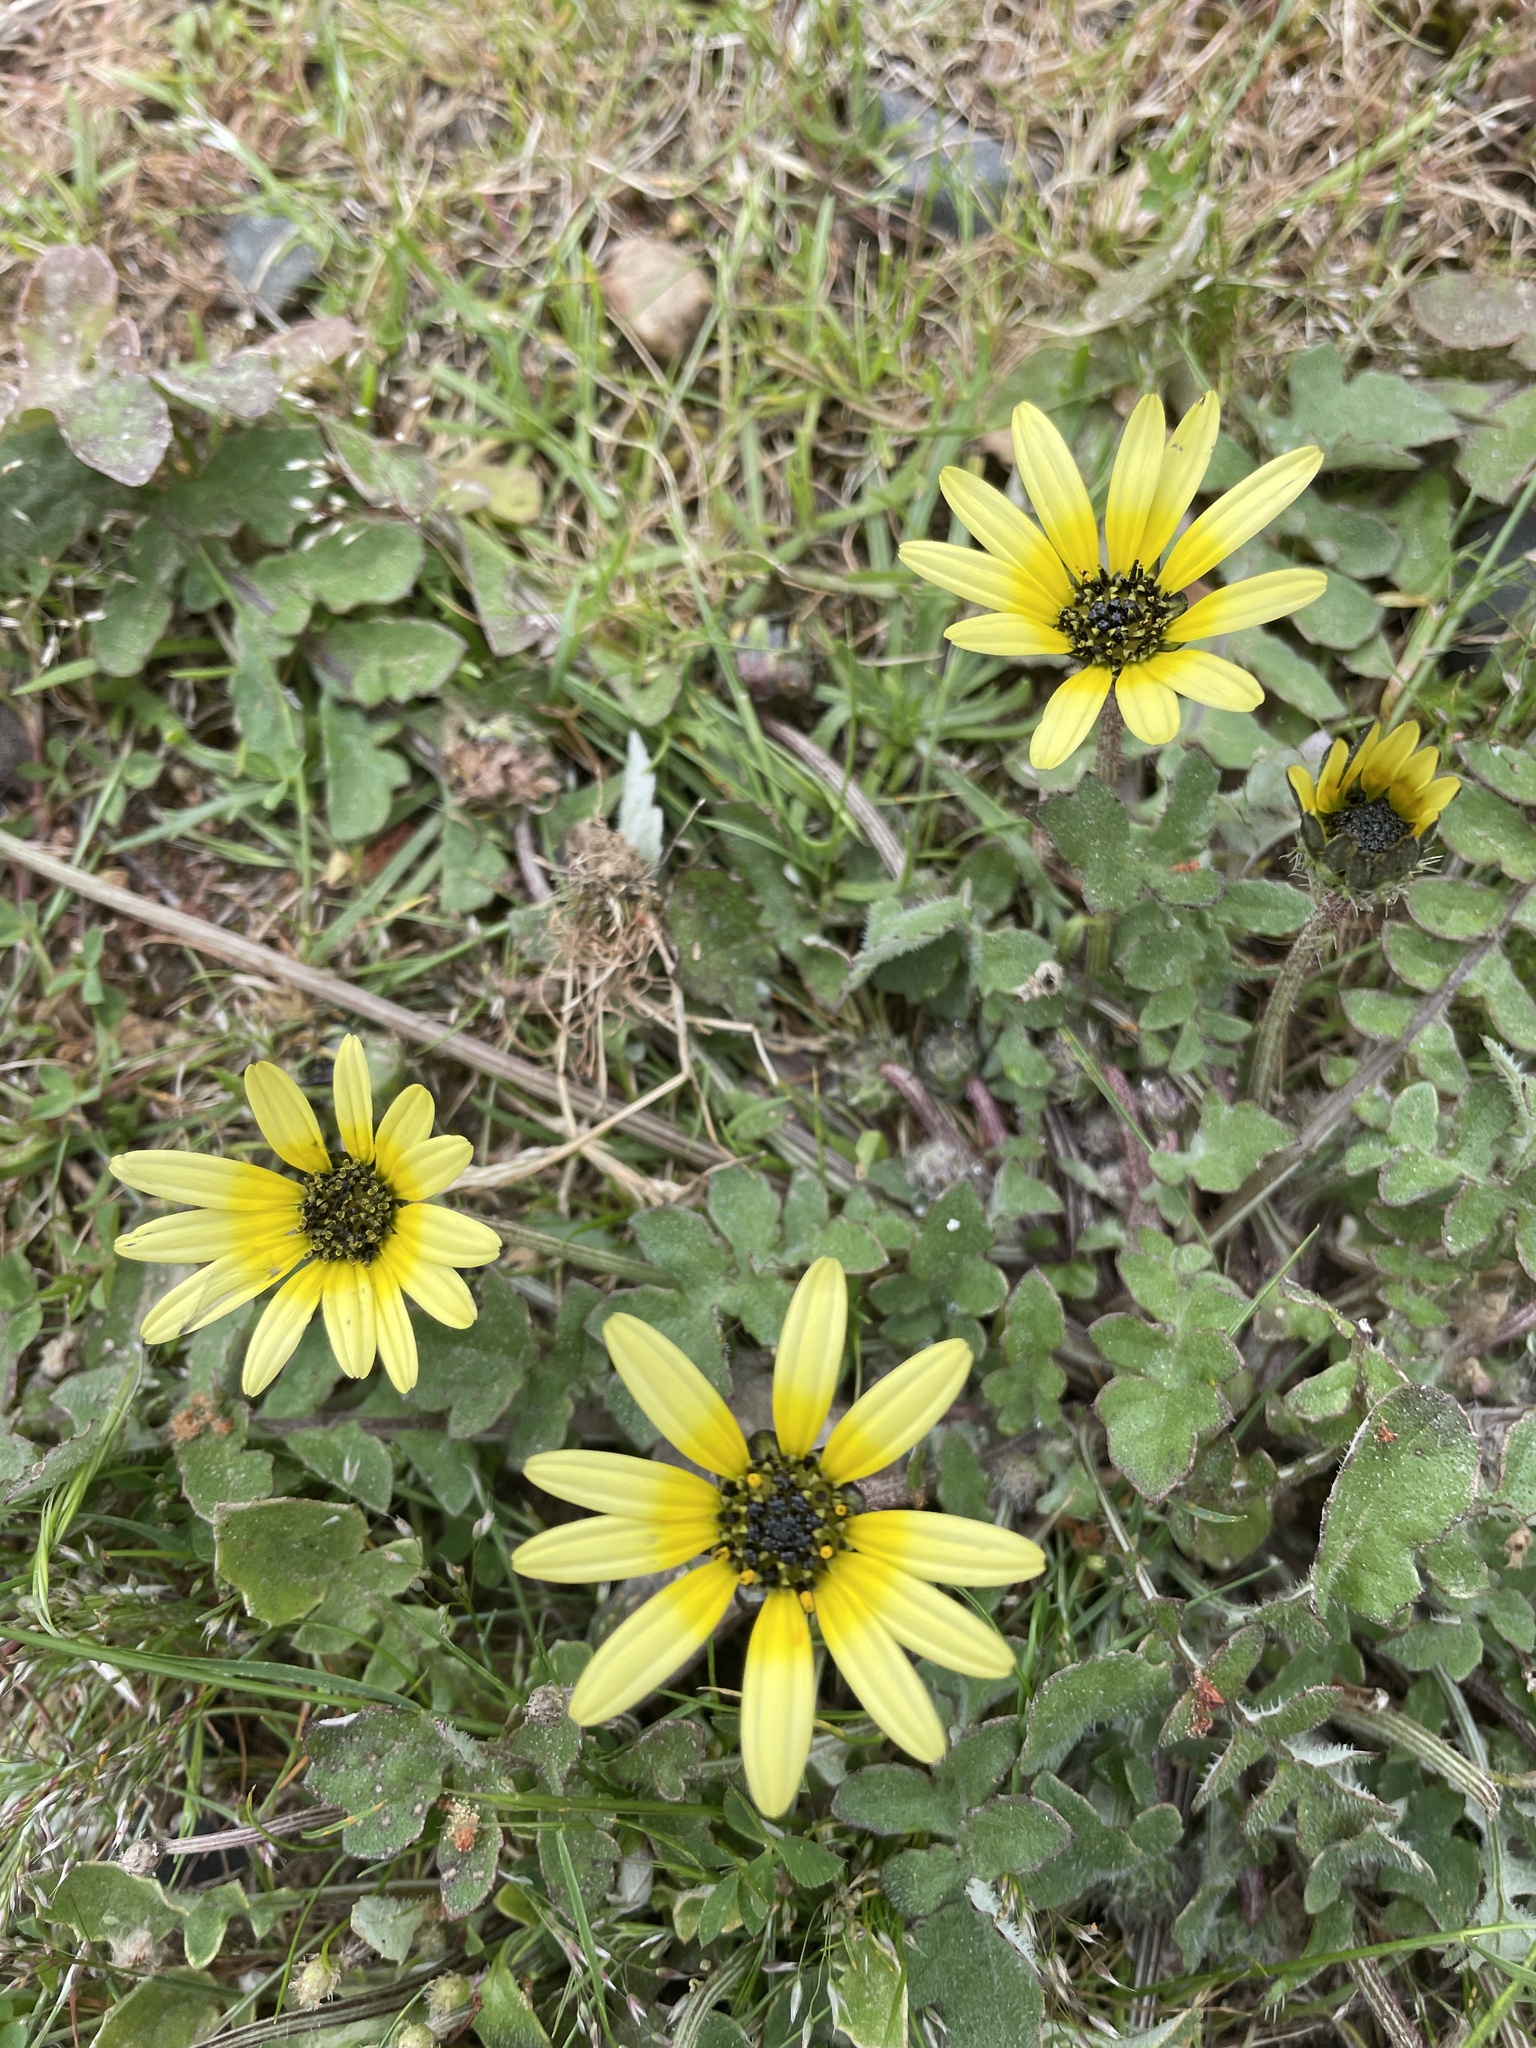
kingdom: Plantae
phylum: Tracheophyta
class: Magnoliopsida
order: Asterales
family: Asteraceae
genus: Arctotheca
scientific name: Arctotheca calendula
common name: Capeweed
